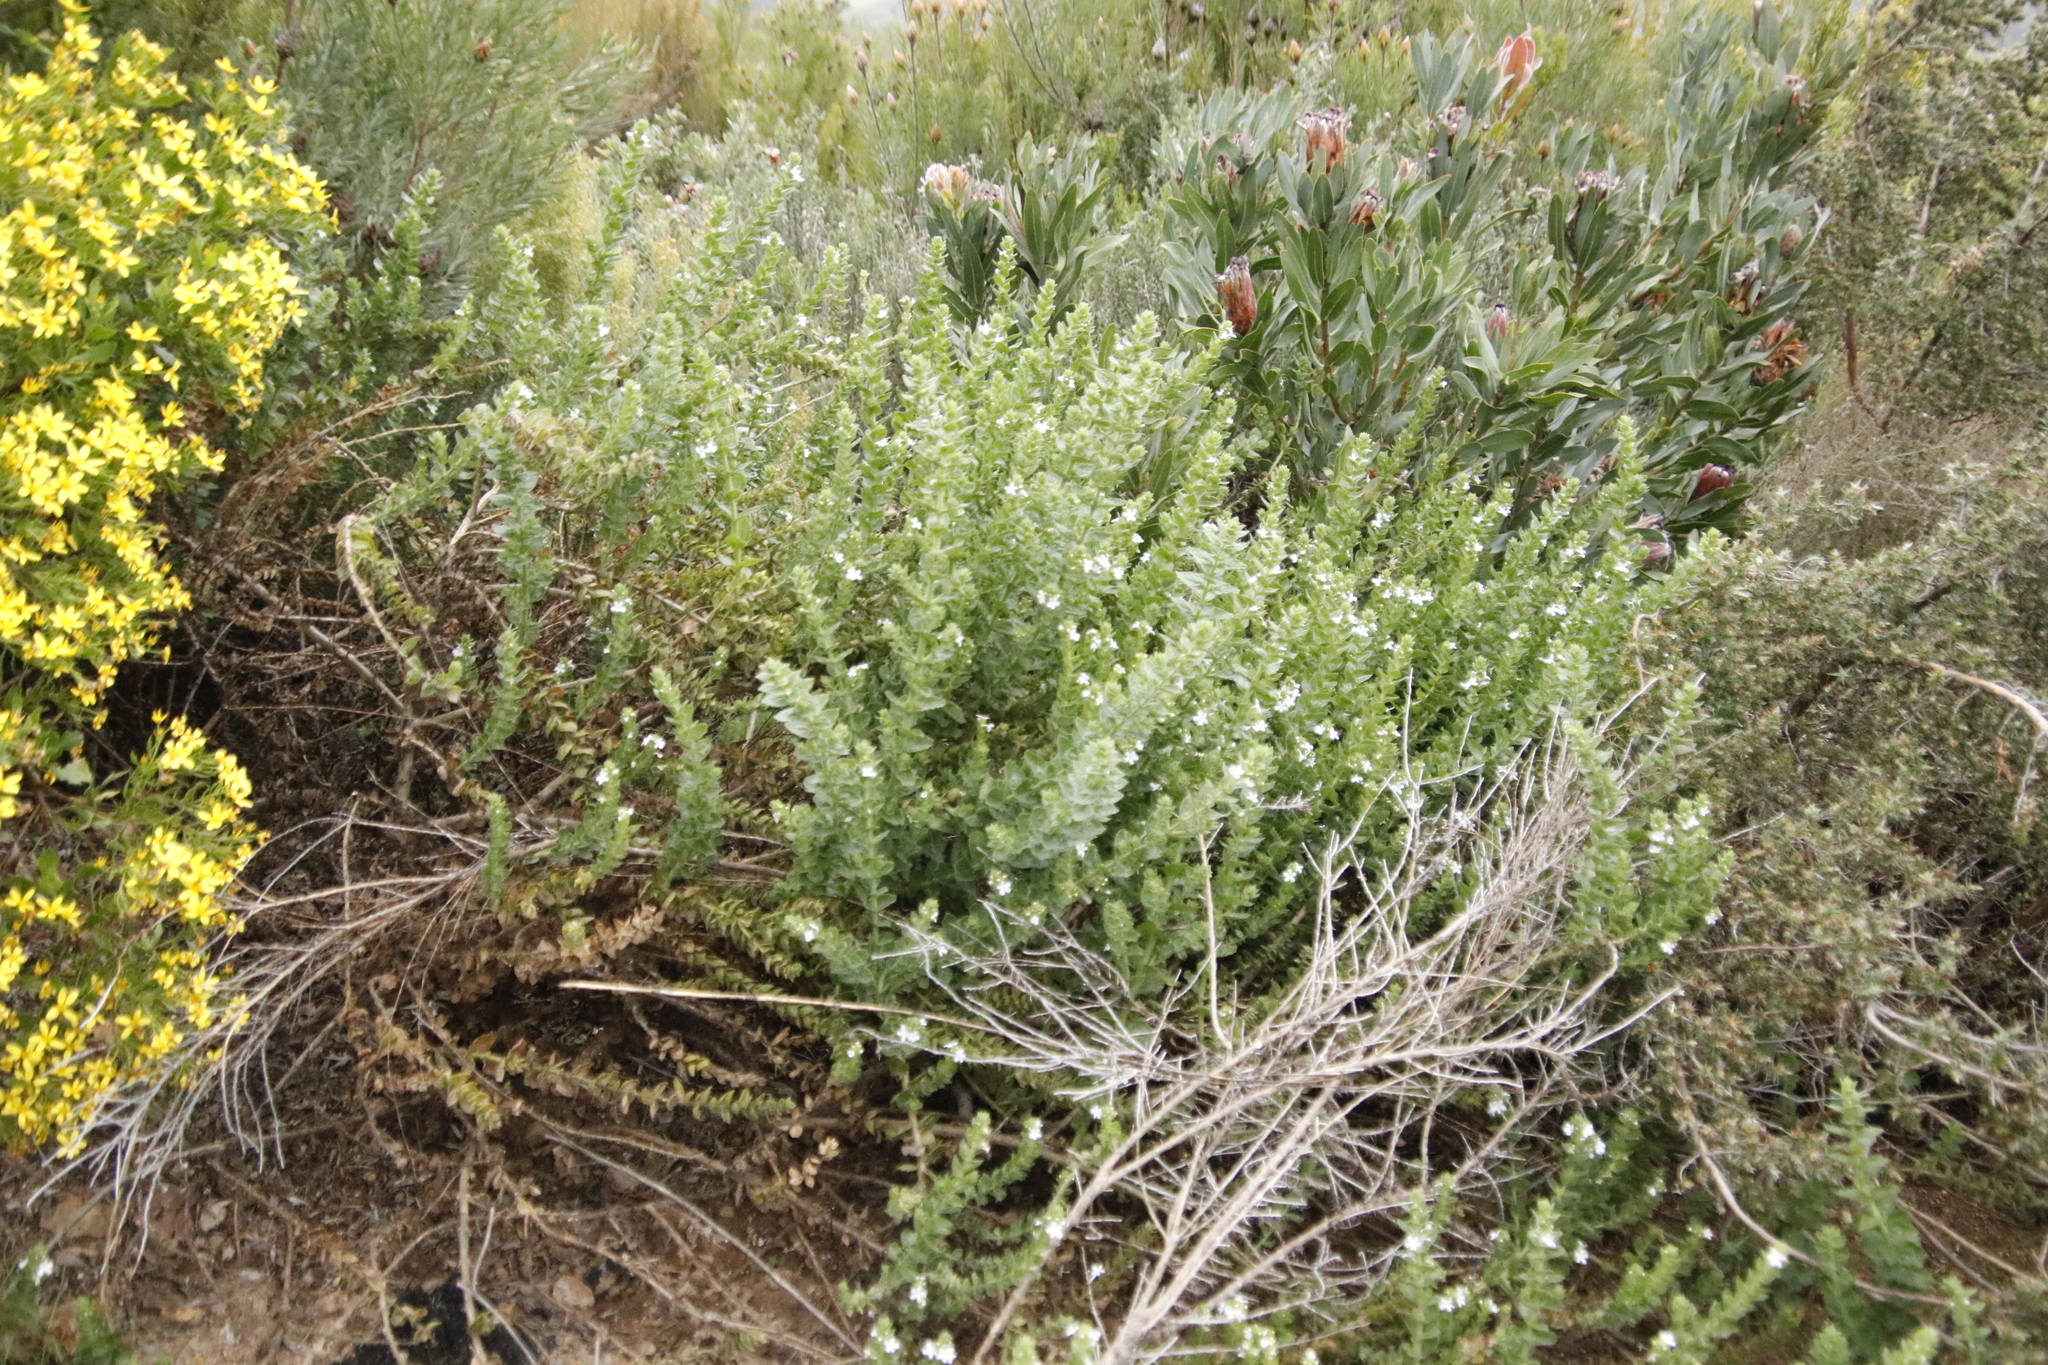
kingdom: Plantae
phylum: Tracheophyta
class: Magnoliopsida
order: Lamiales
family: Scrophulariaceae
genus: Oftia
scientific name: Oftia africana
